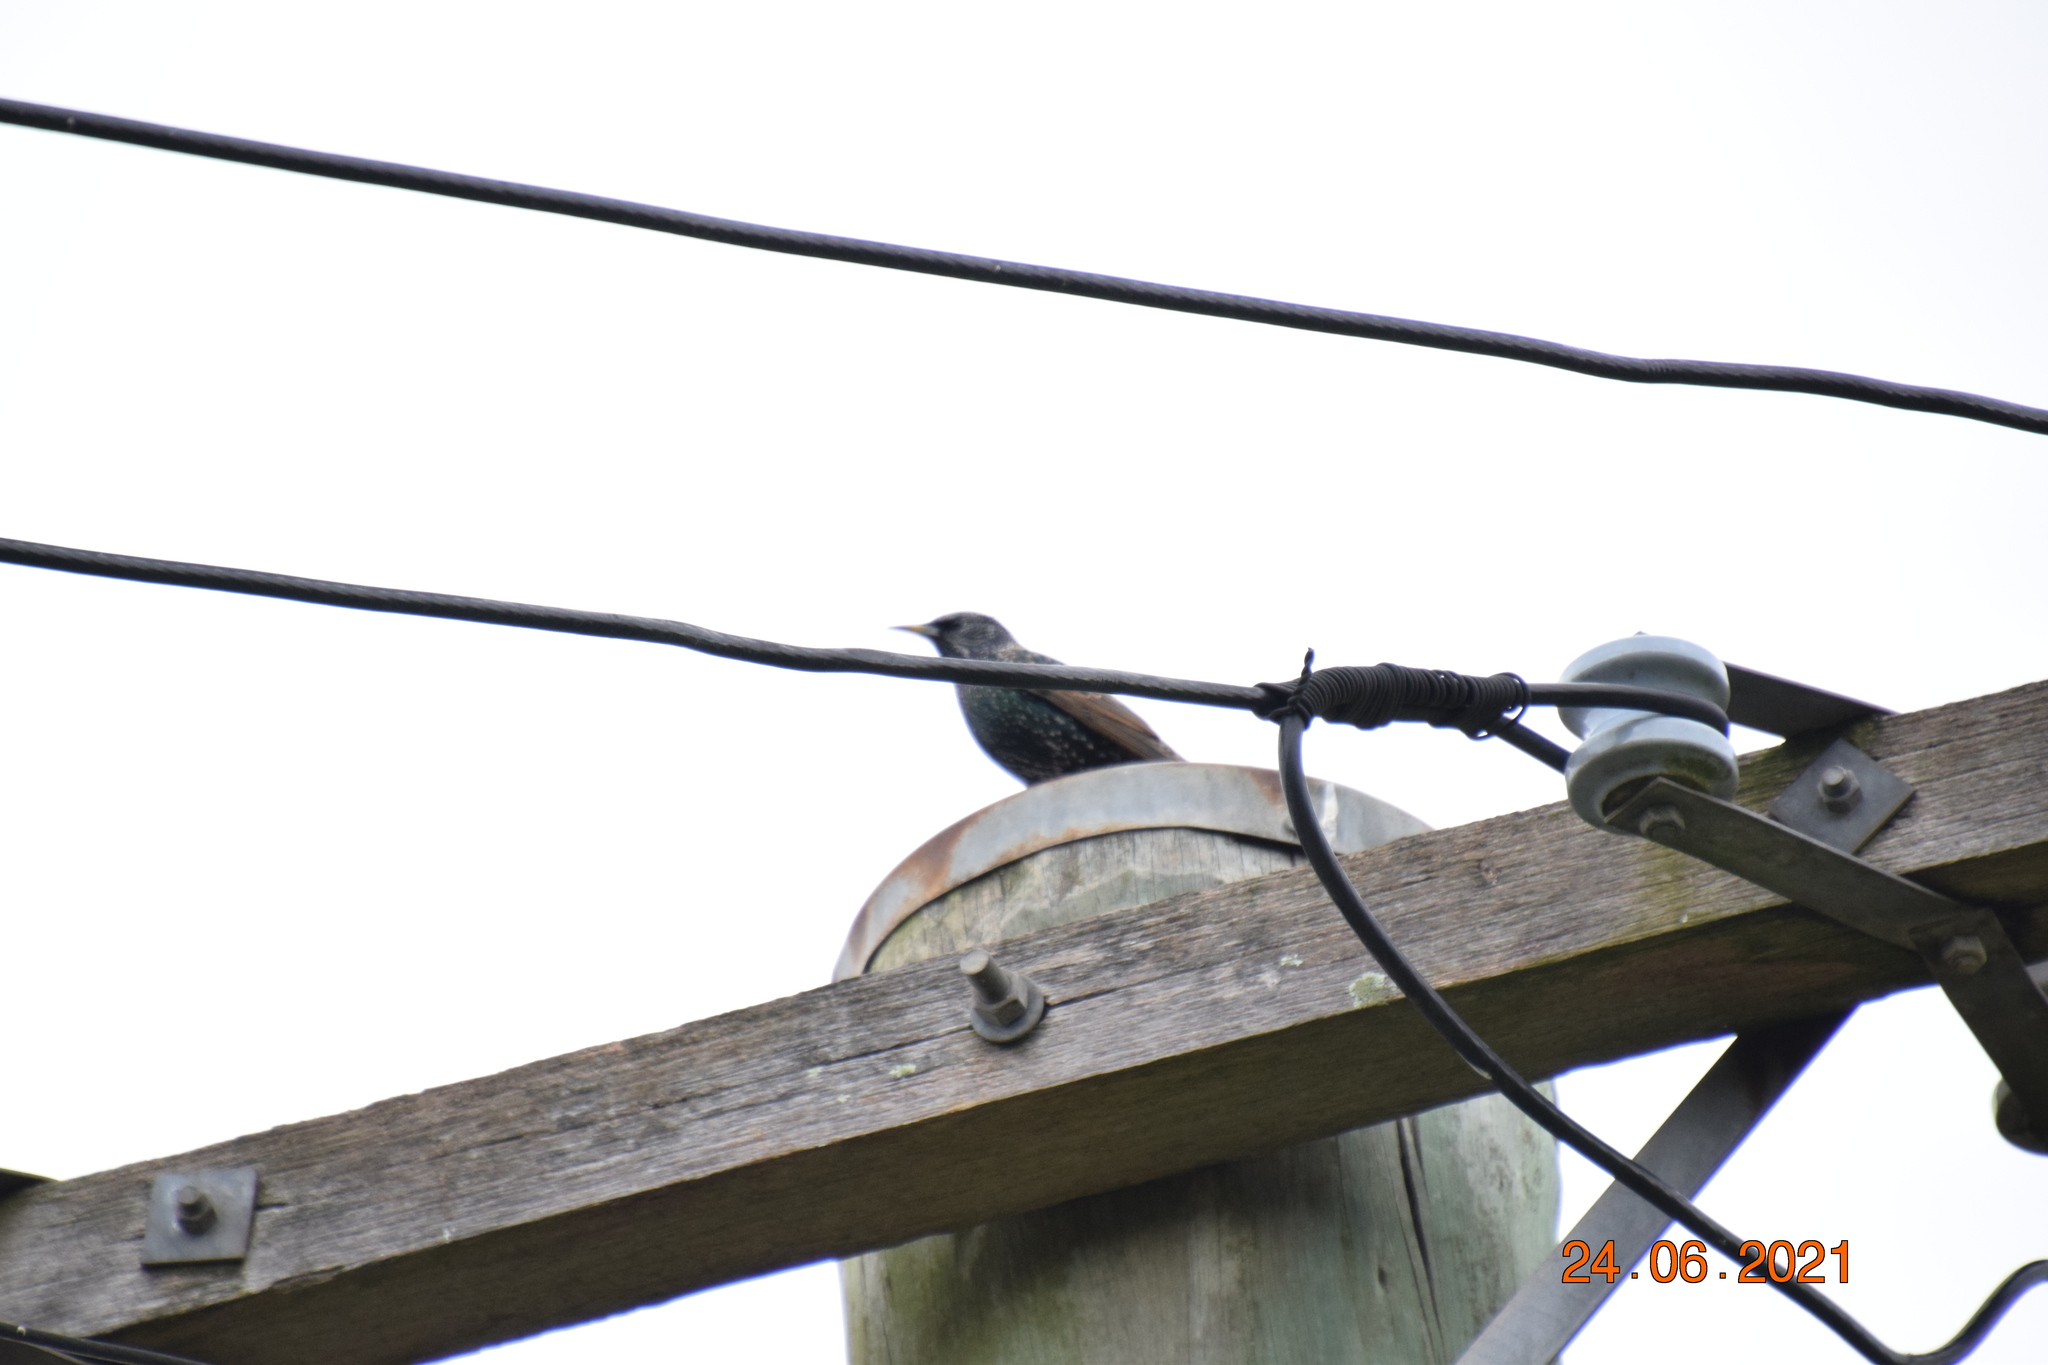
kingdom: Animalia
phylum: Chordata
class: Aves
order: Passeriformes
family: Sturnidae
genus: Sturnus
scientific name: Sturnus vulgaris
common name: Common starling
